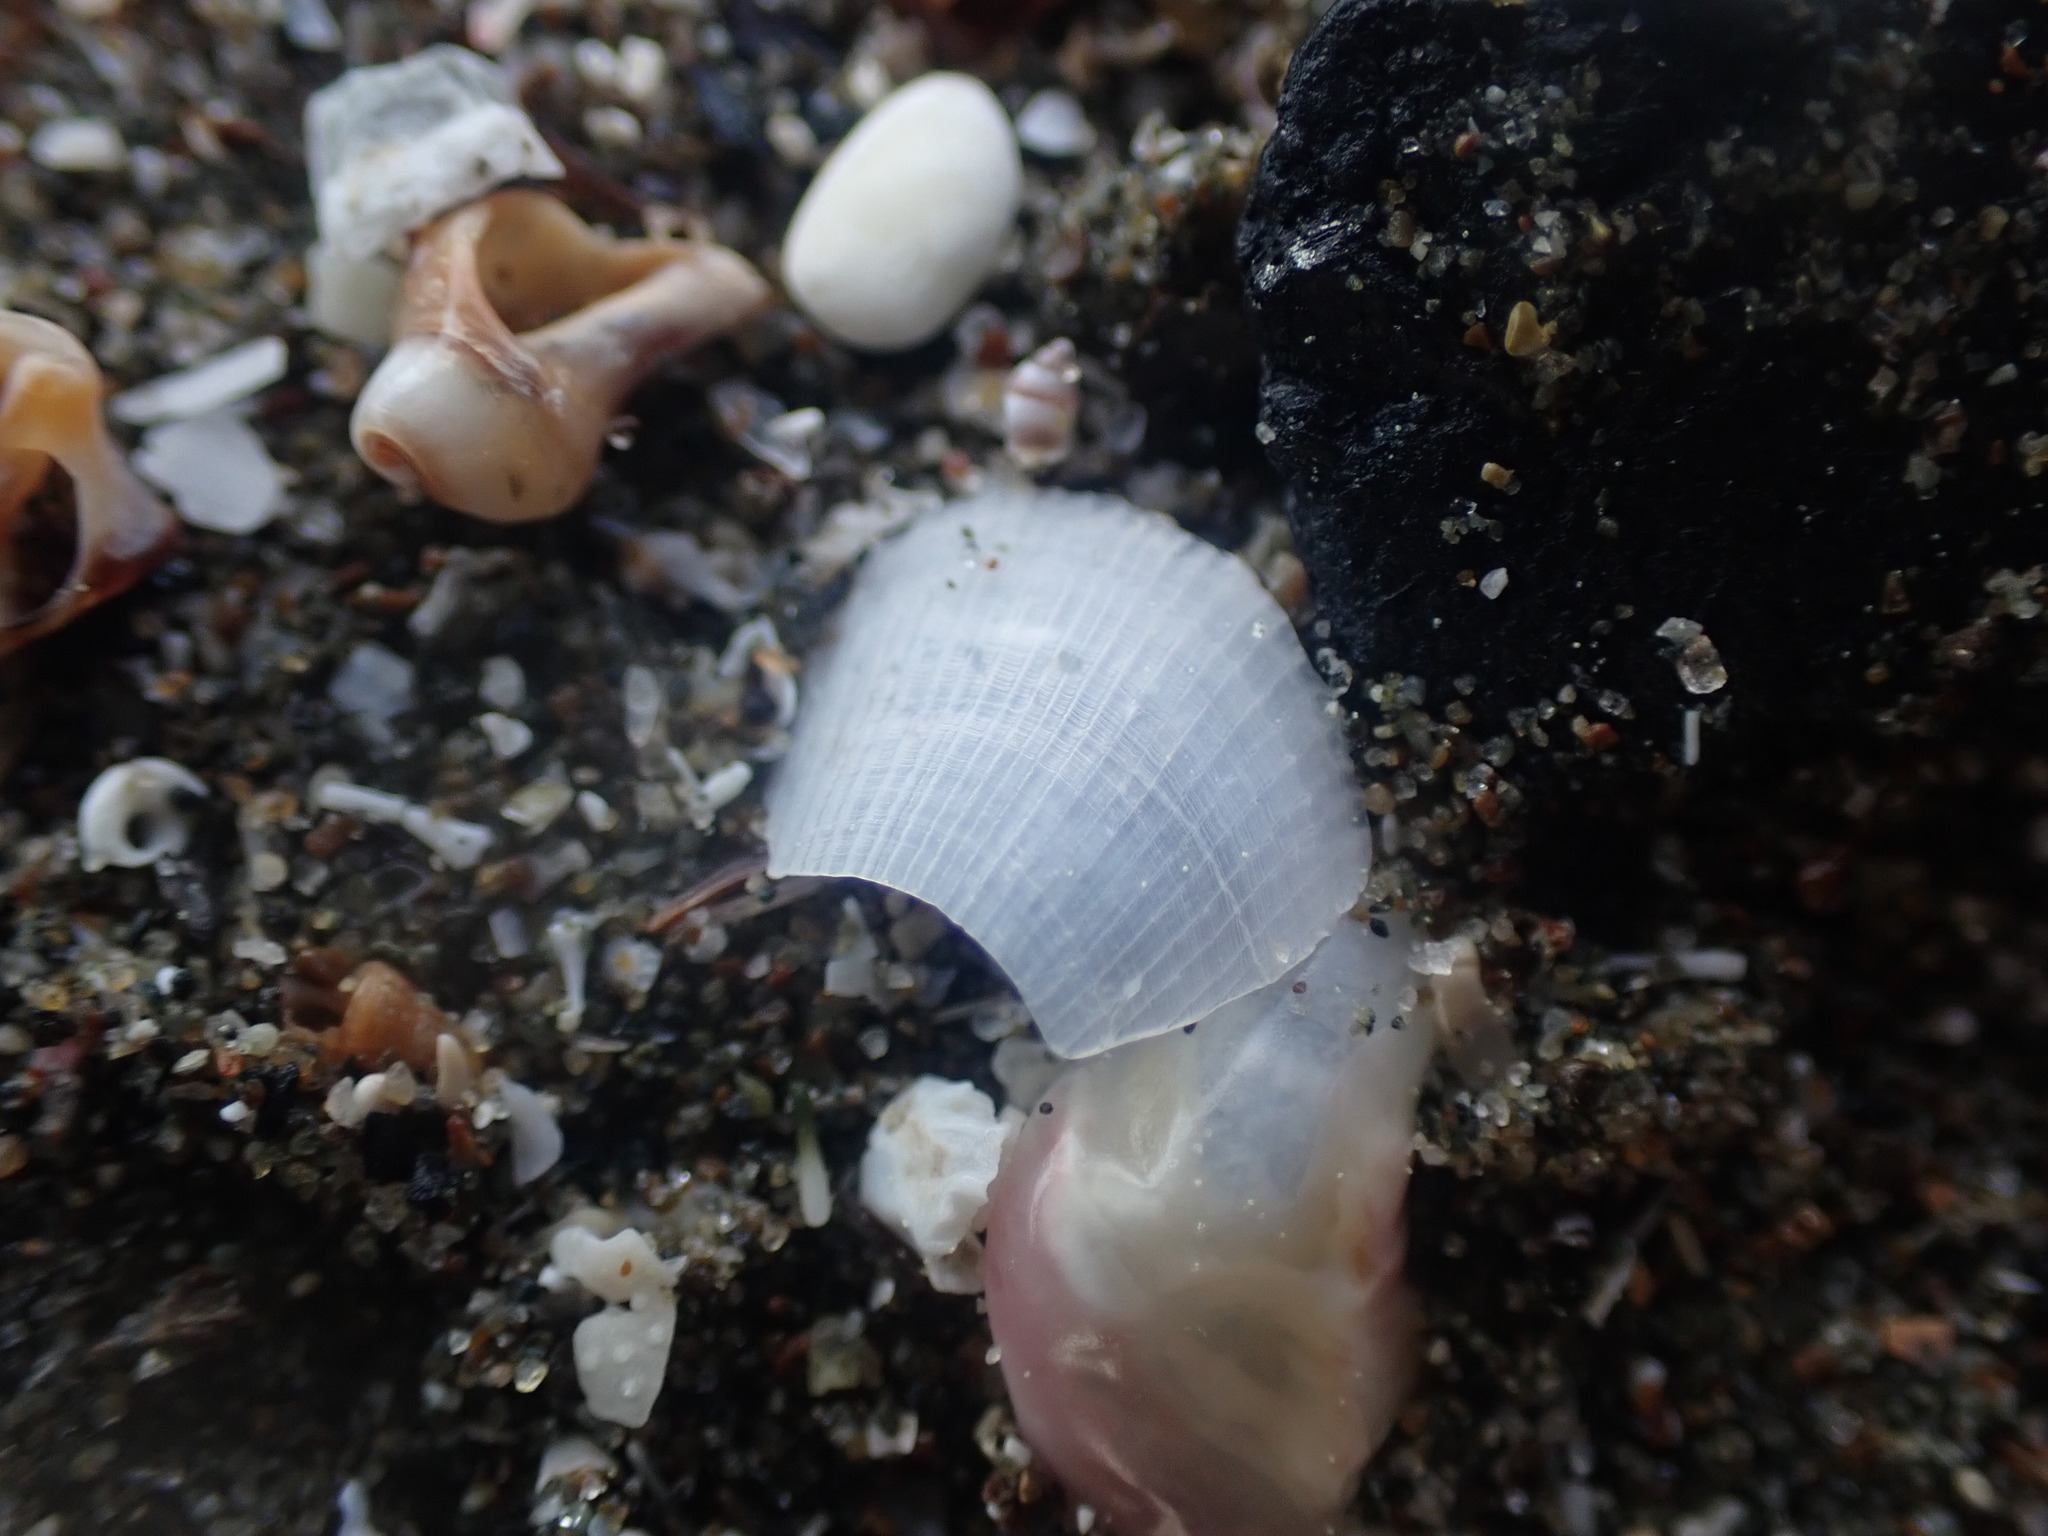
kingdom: Animalia
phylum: Mollusca
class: Bivalvia
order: Limida
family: Limidae
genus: Limaria
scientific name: Limaria orientalis
